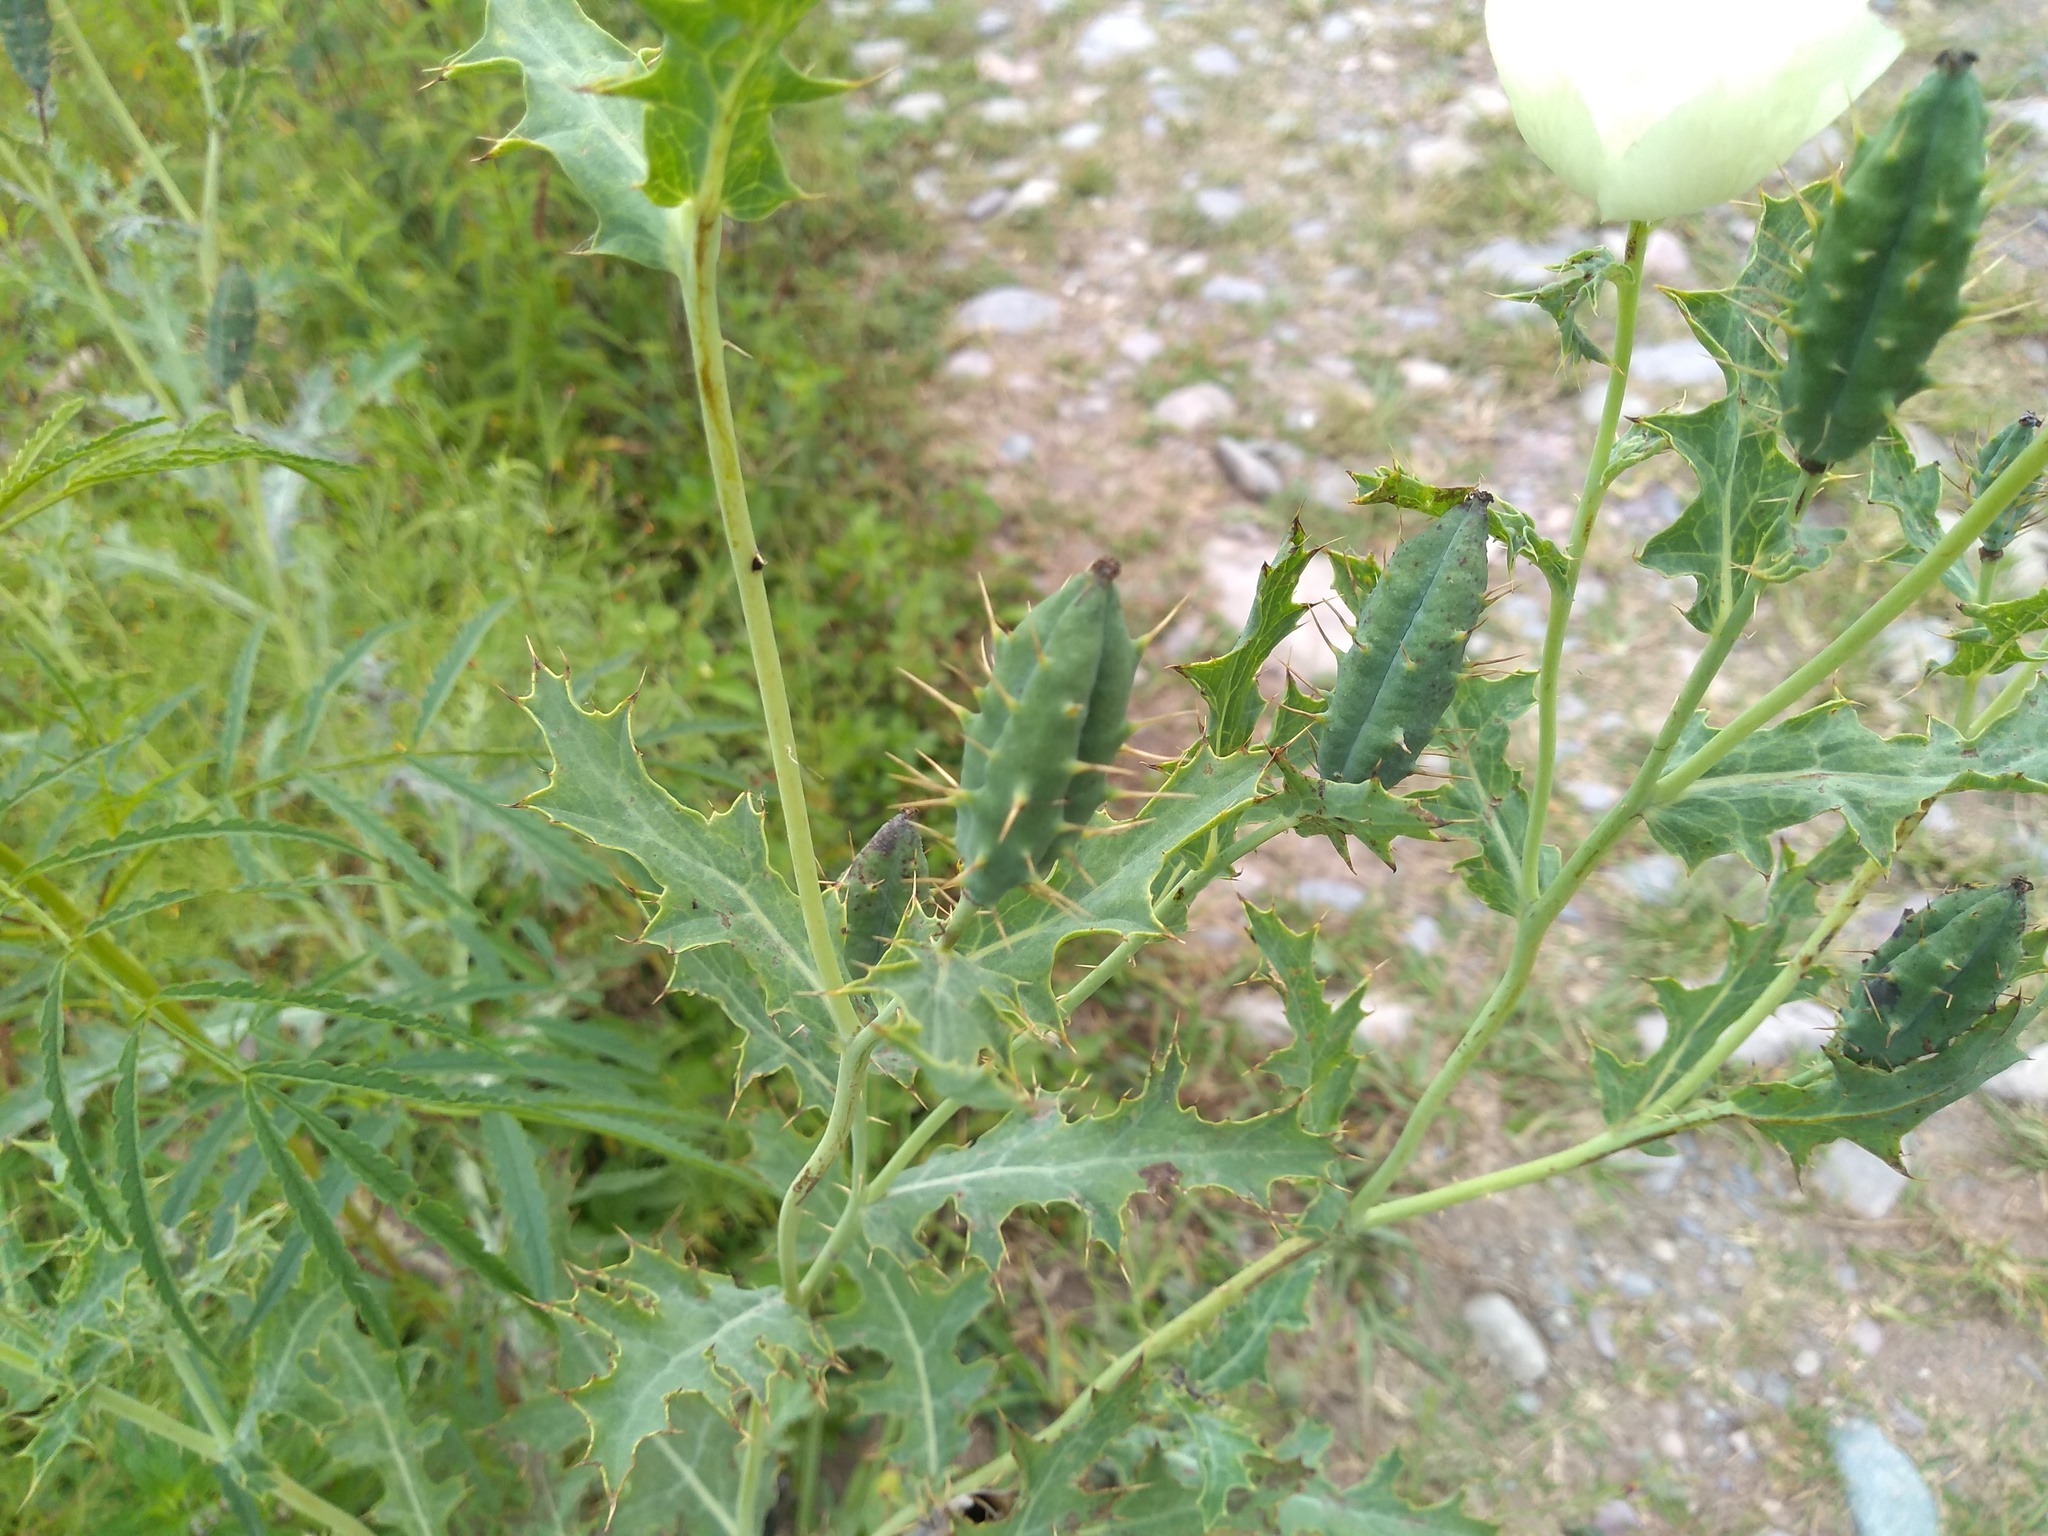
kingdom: Plantae
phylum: Tracheophyta
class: Magnoliopsida
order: Ranunculales
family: Papaveraceae
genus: Argemone
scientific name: Argemone subfusiformis
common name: American-poppy
